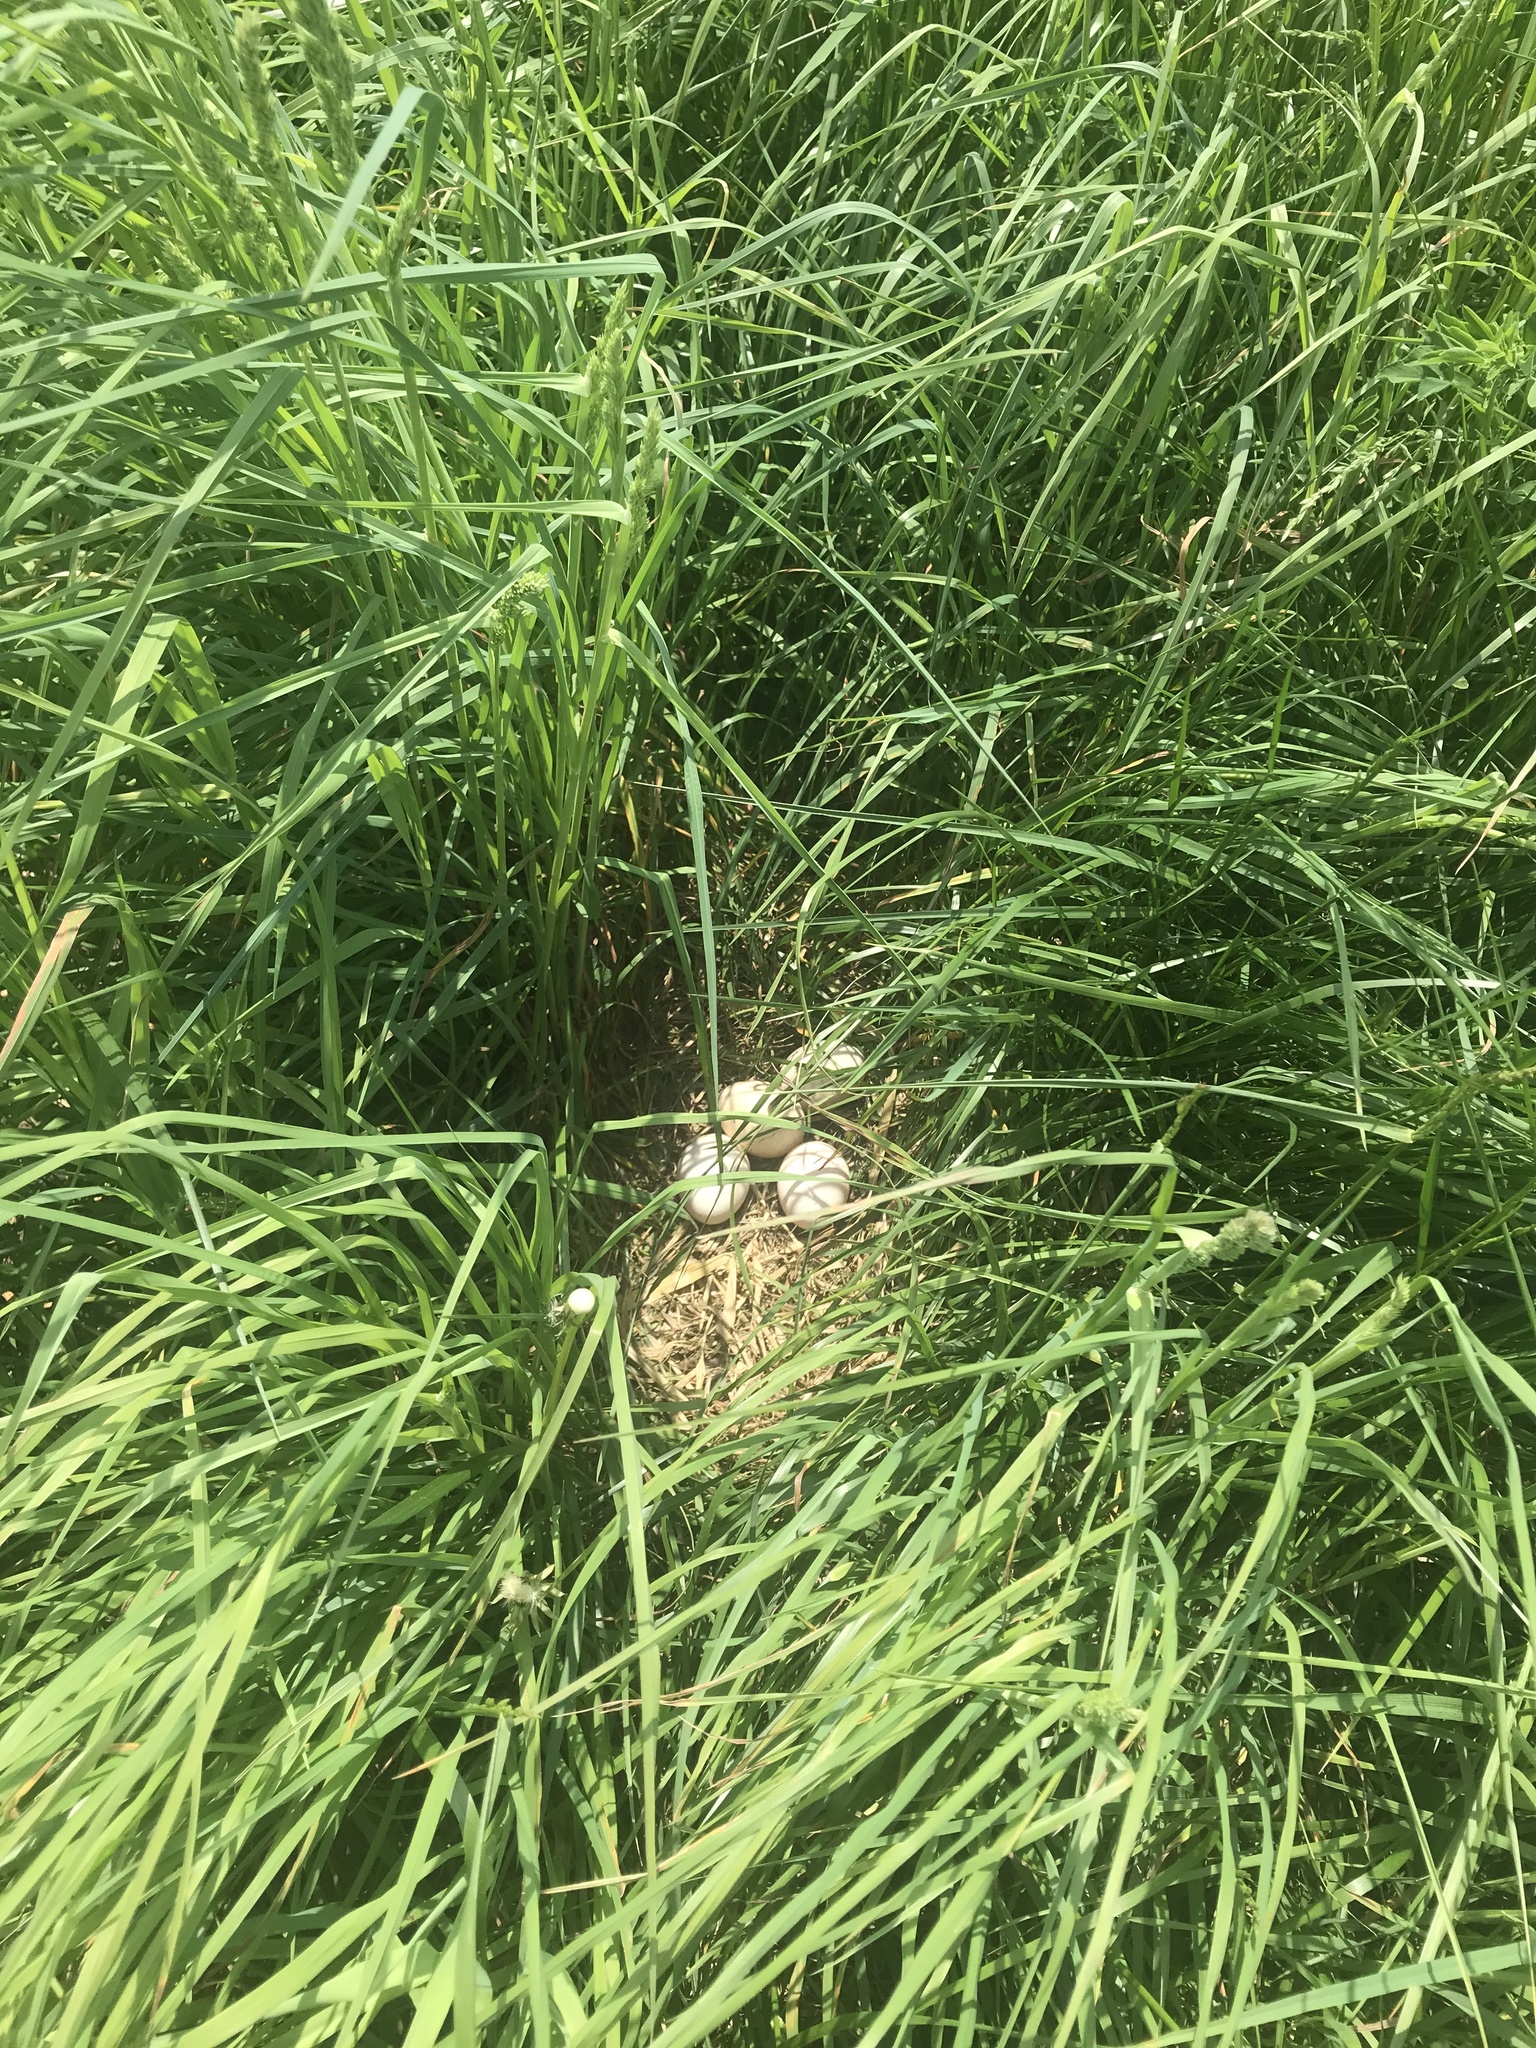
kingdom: Animalia
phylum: Chordata
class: Aves
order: Galliformes
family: Phasianidae
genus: Meleagris
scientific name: Meleagris gallopavo
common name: Wild turkey
